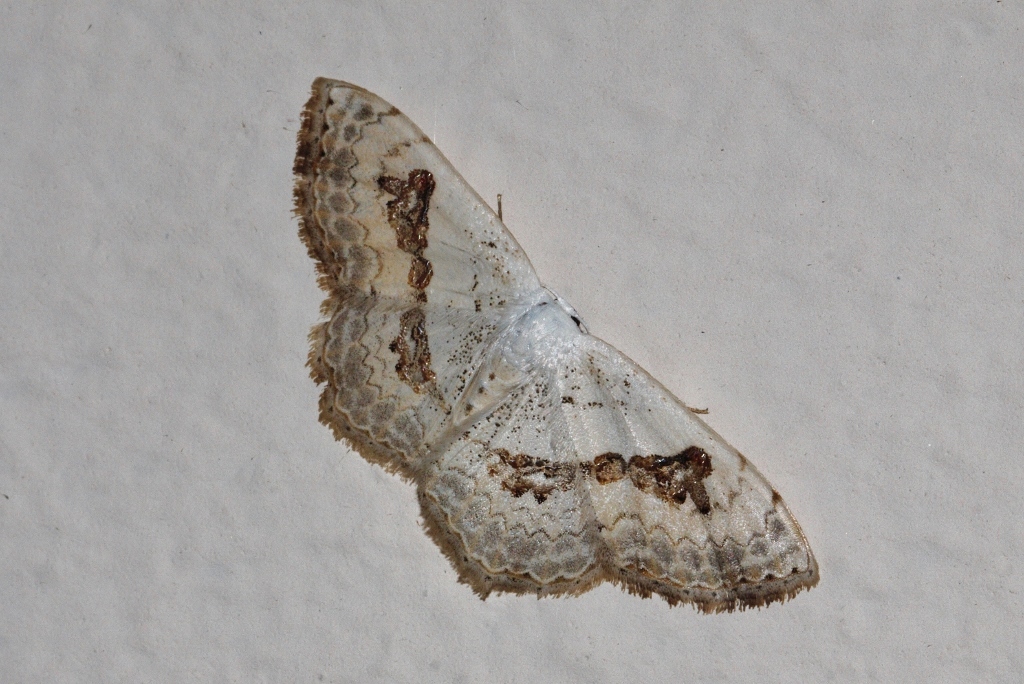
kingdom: Animalia
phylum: Arthropoda
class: Insecta
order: Lepidoptera
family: Geometridae
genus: Problepsis
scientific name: Problepsis
